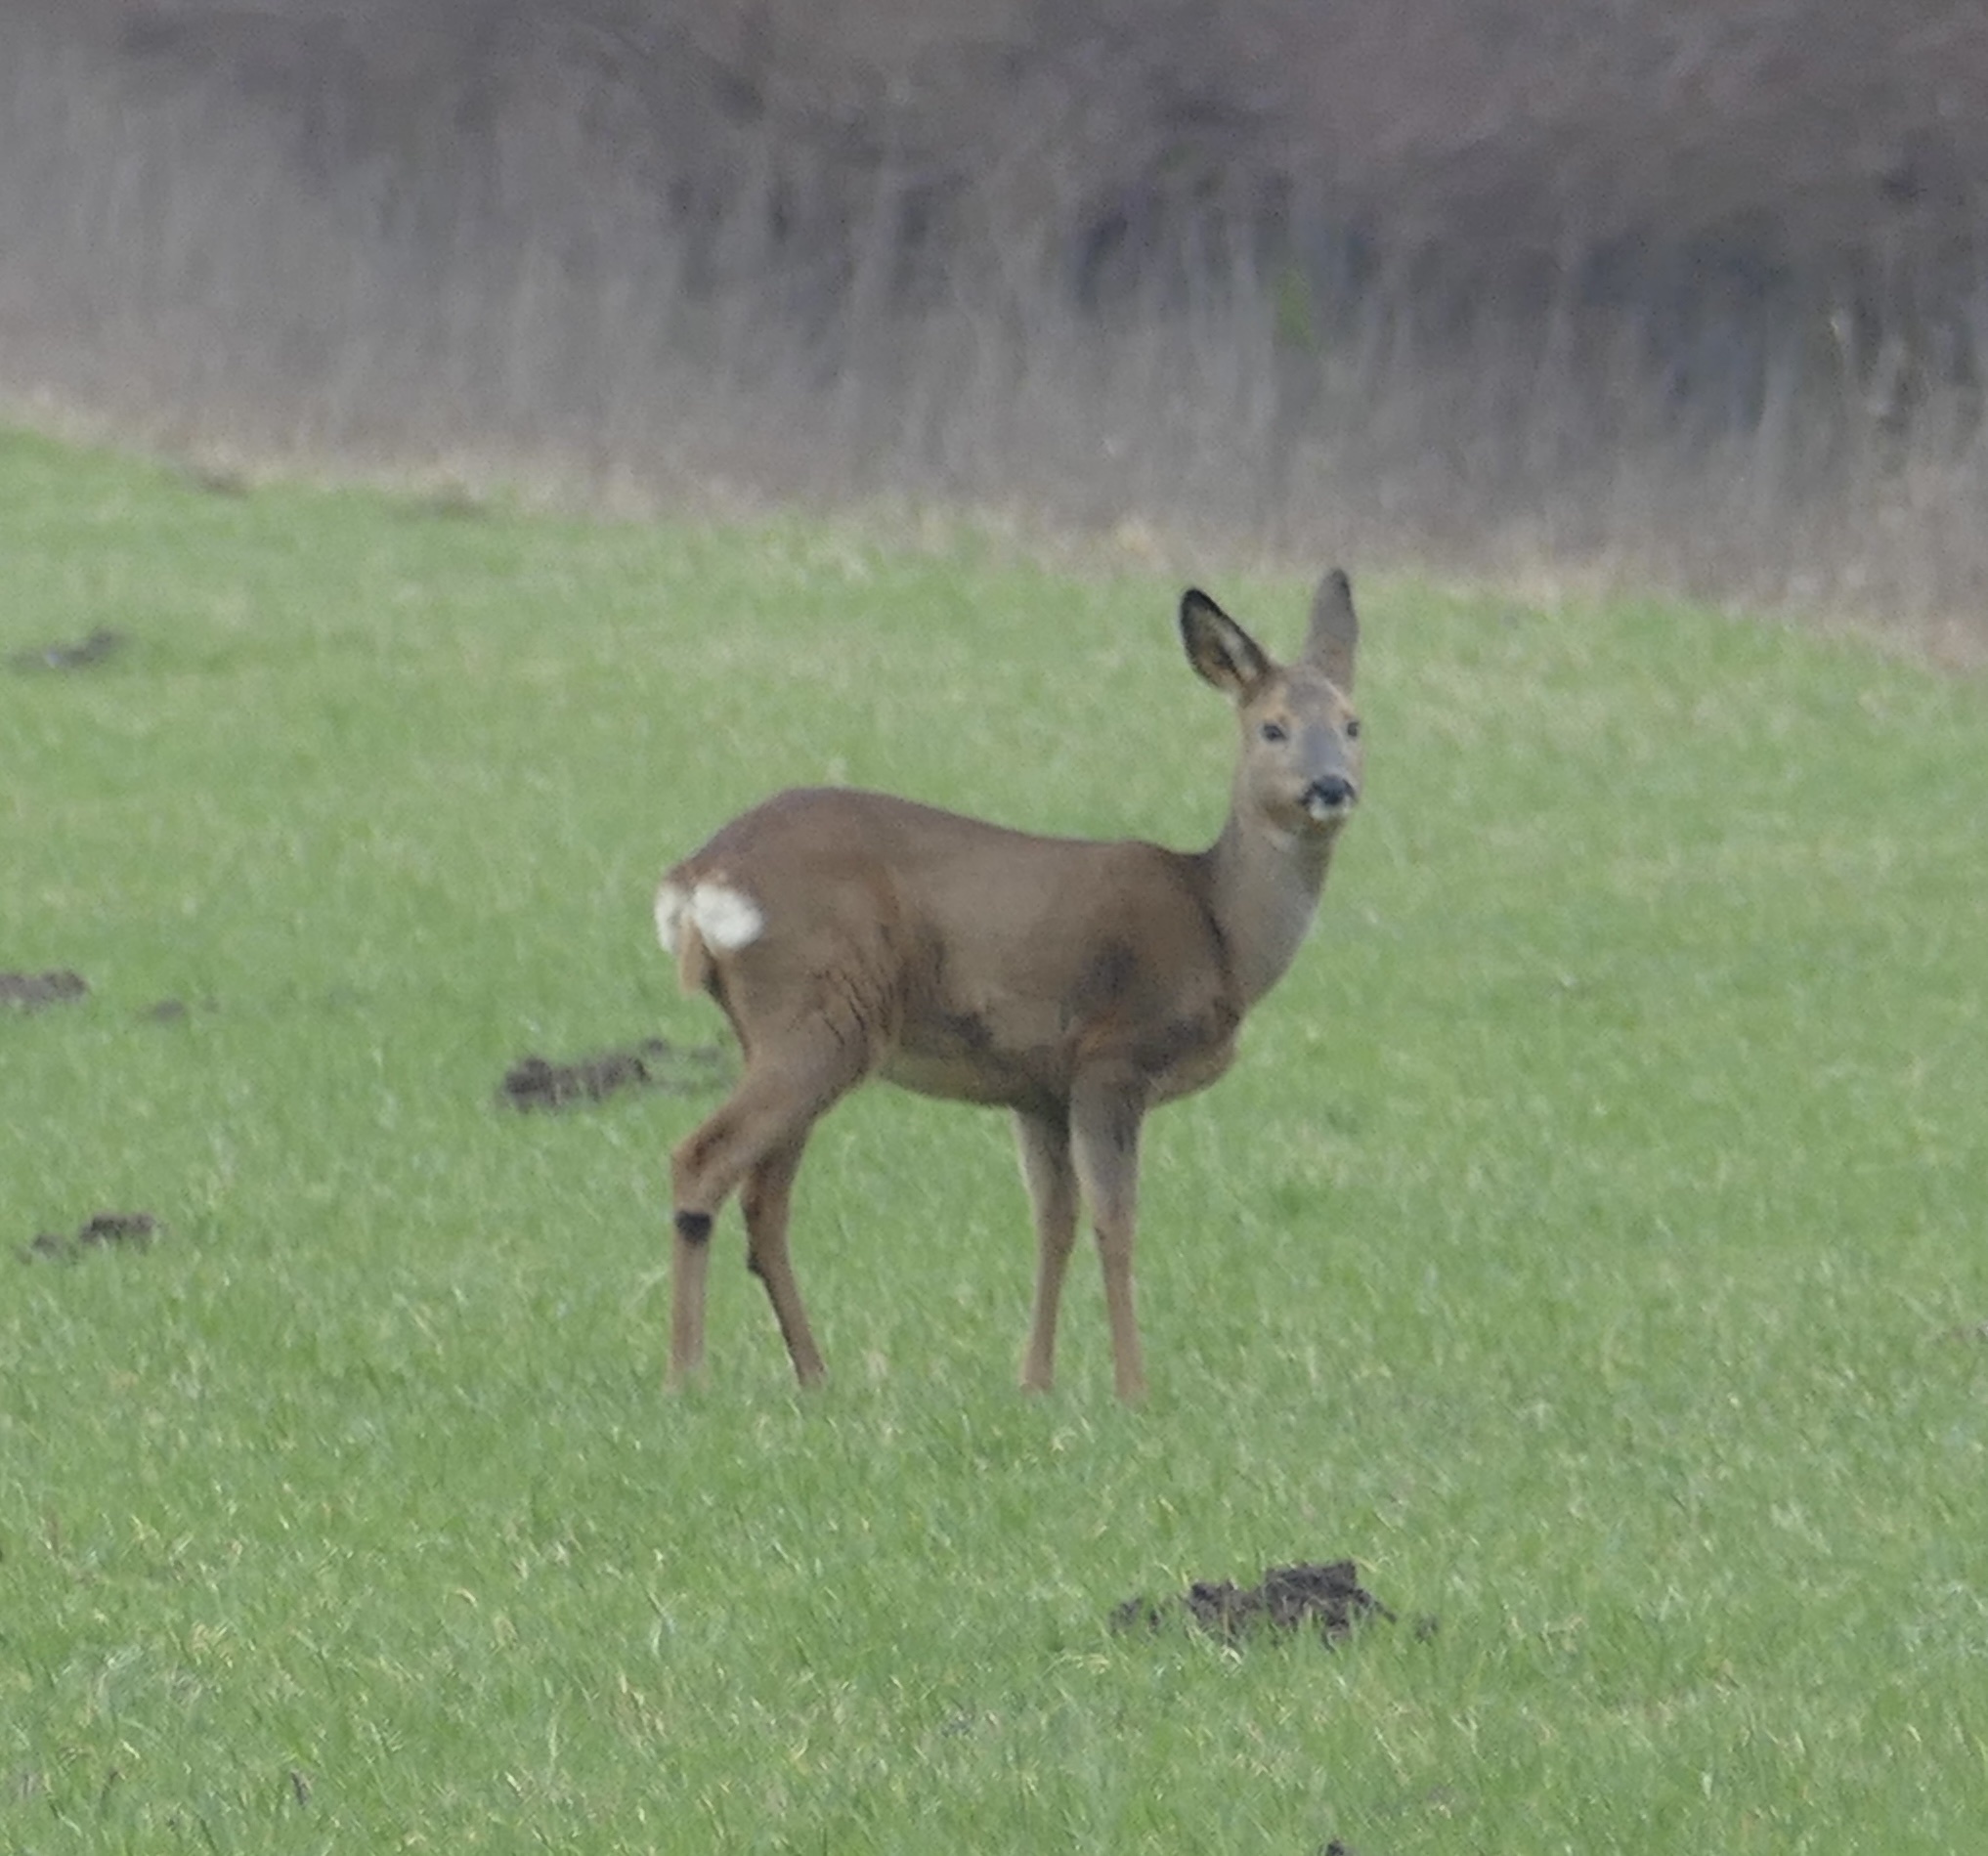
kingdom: Animalia
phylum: Chordata
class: Mammalia
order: Artiodactyla
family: Cervidae
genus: Capreolus
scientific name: Capreolus capreolus
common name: Western roe deer
